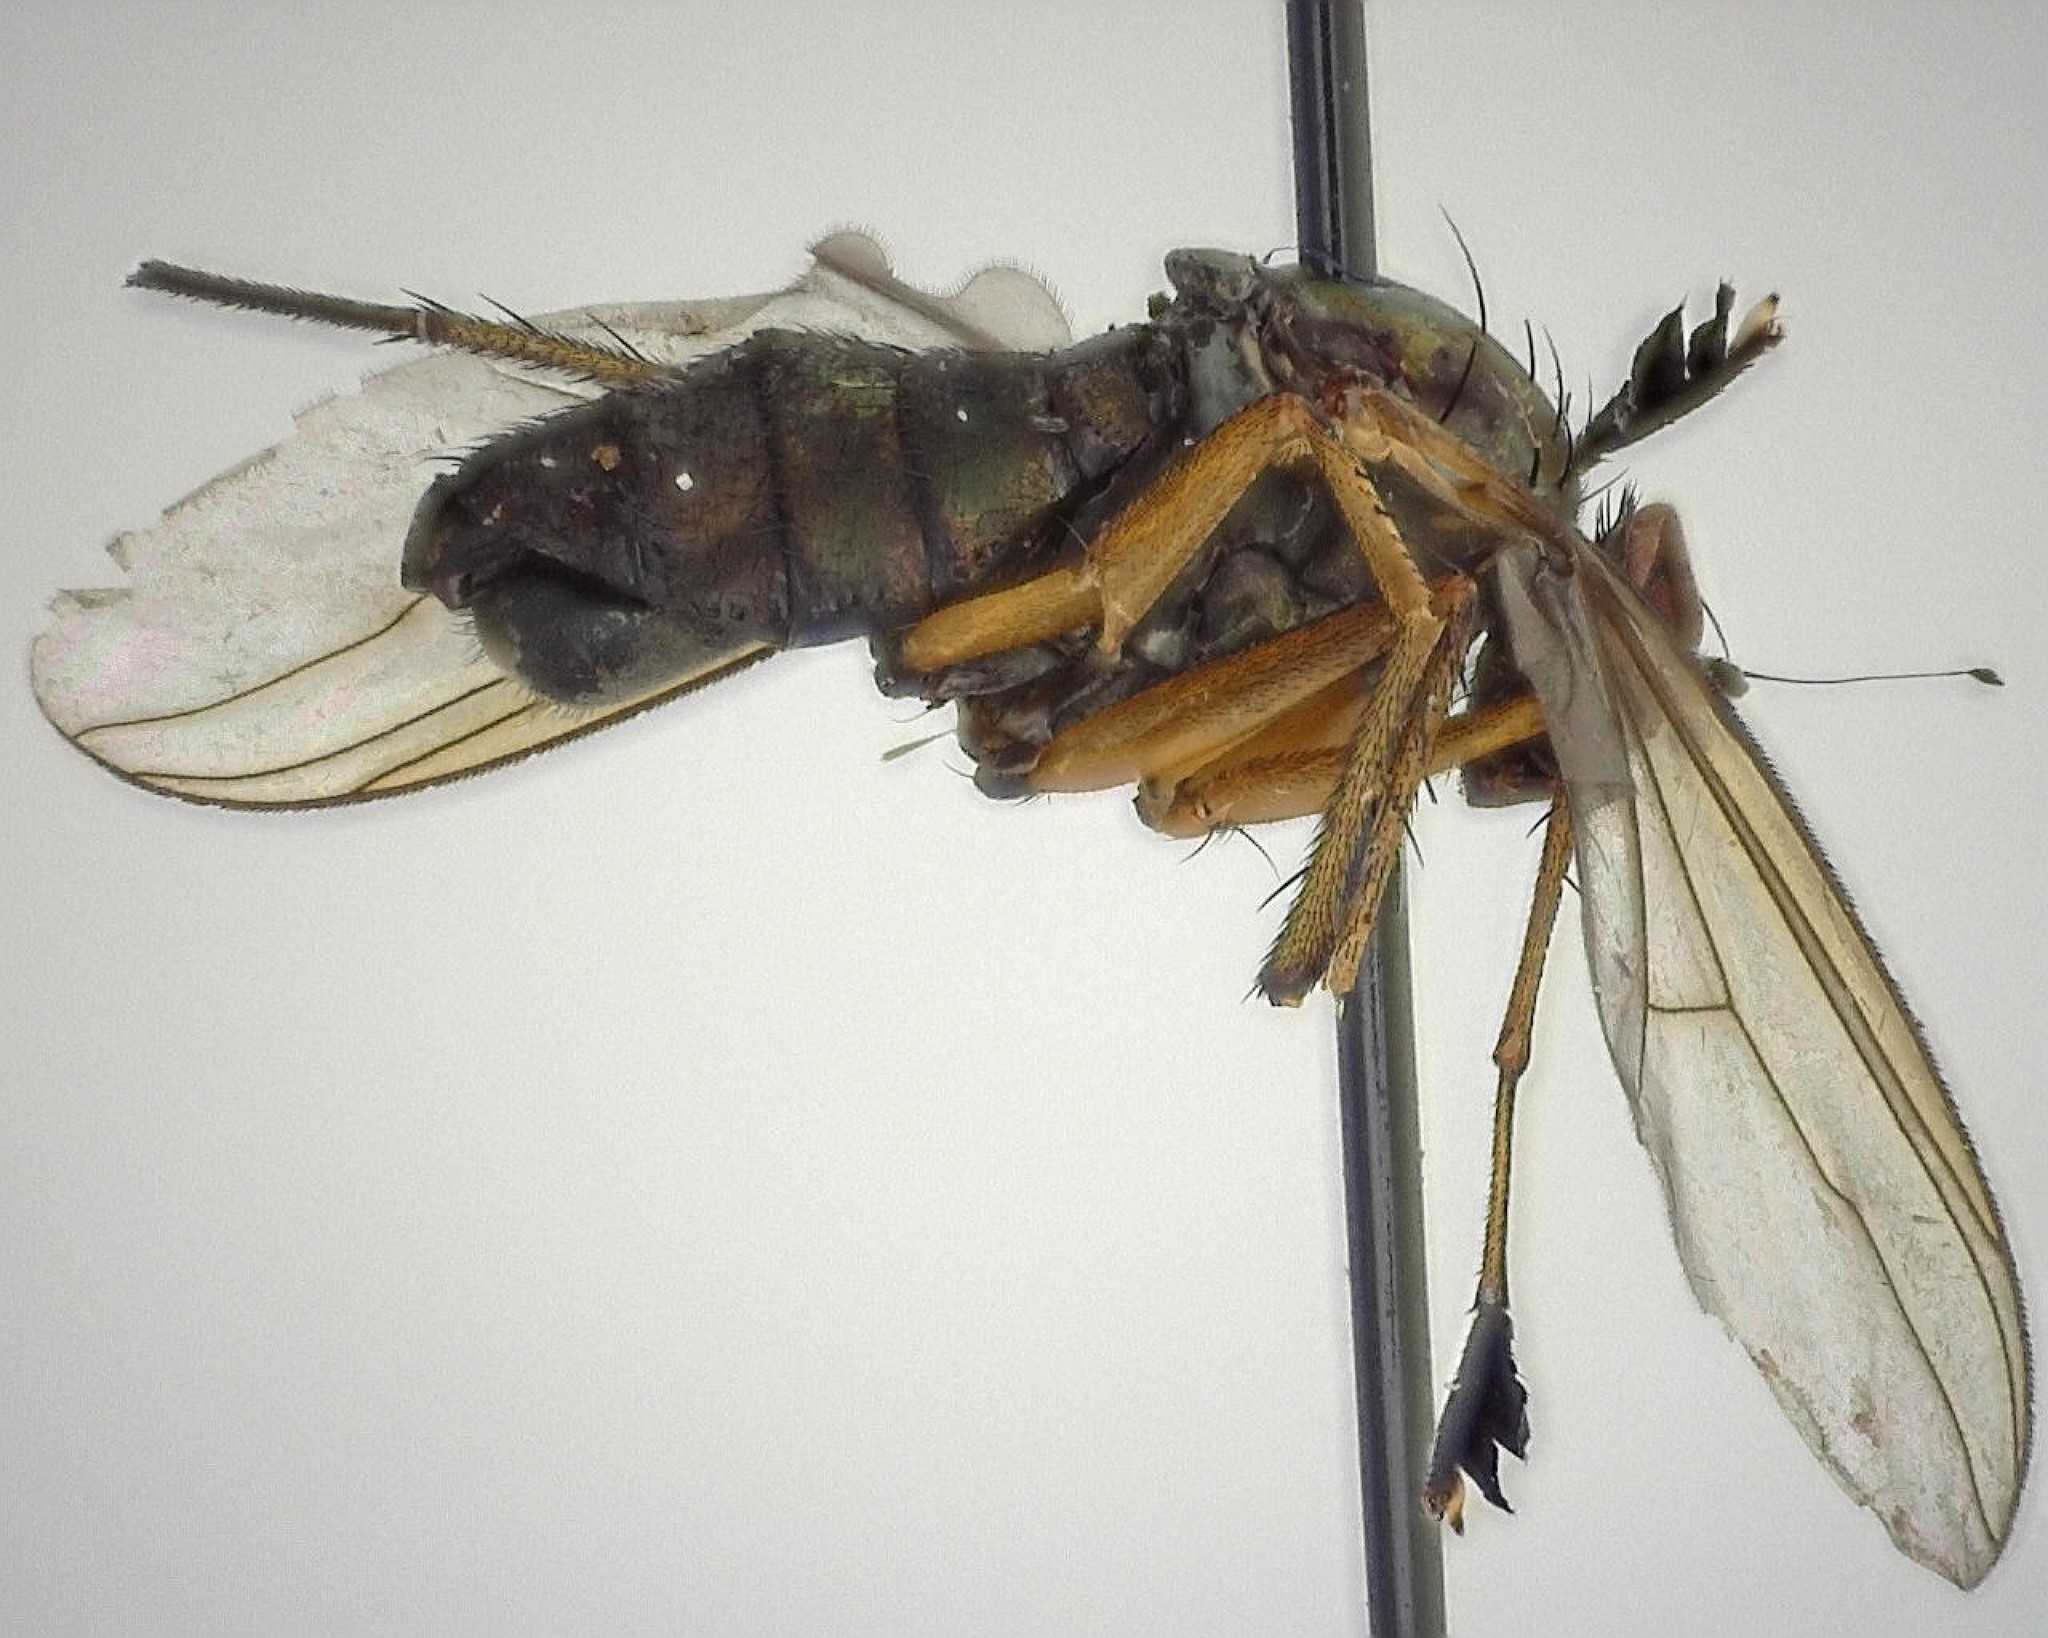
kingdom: Animalia
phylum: Arthropoda
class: Insecta
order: Diptera
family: Dolichopodidae
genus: Dolichopus
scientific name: Dolichopus dorycerus
